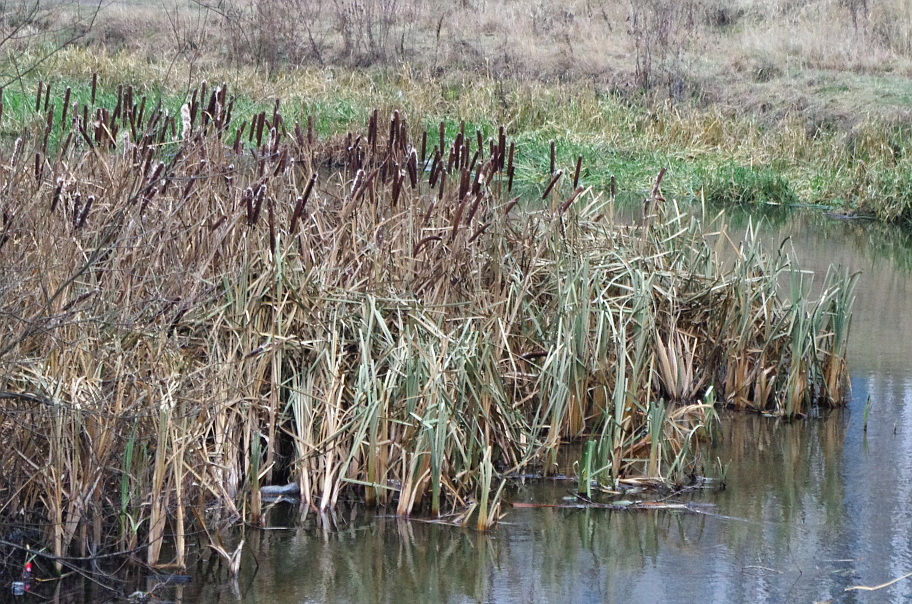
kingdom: Plantae
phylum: Tracheophyta
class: Liliopsida
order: Poales
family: Typhaceae
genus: Typha
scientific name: Typha latifolia
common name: Broadleaf cattail
